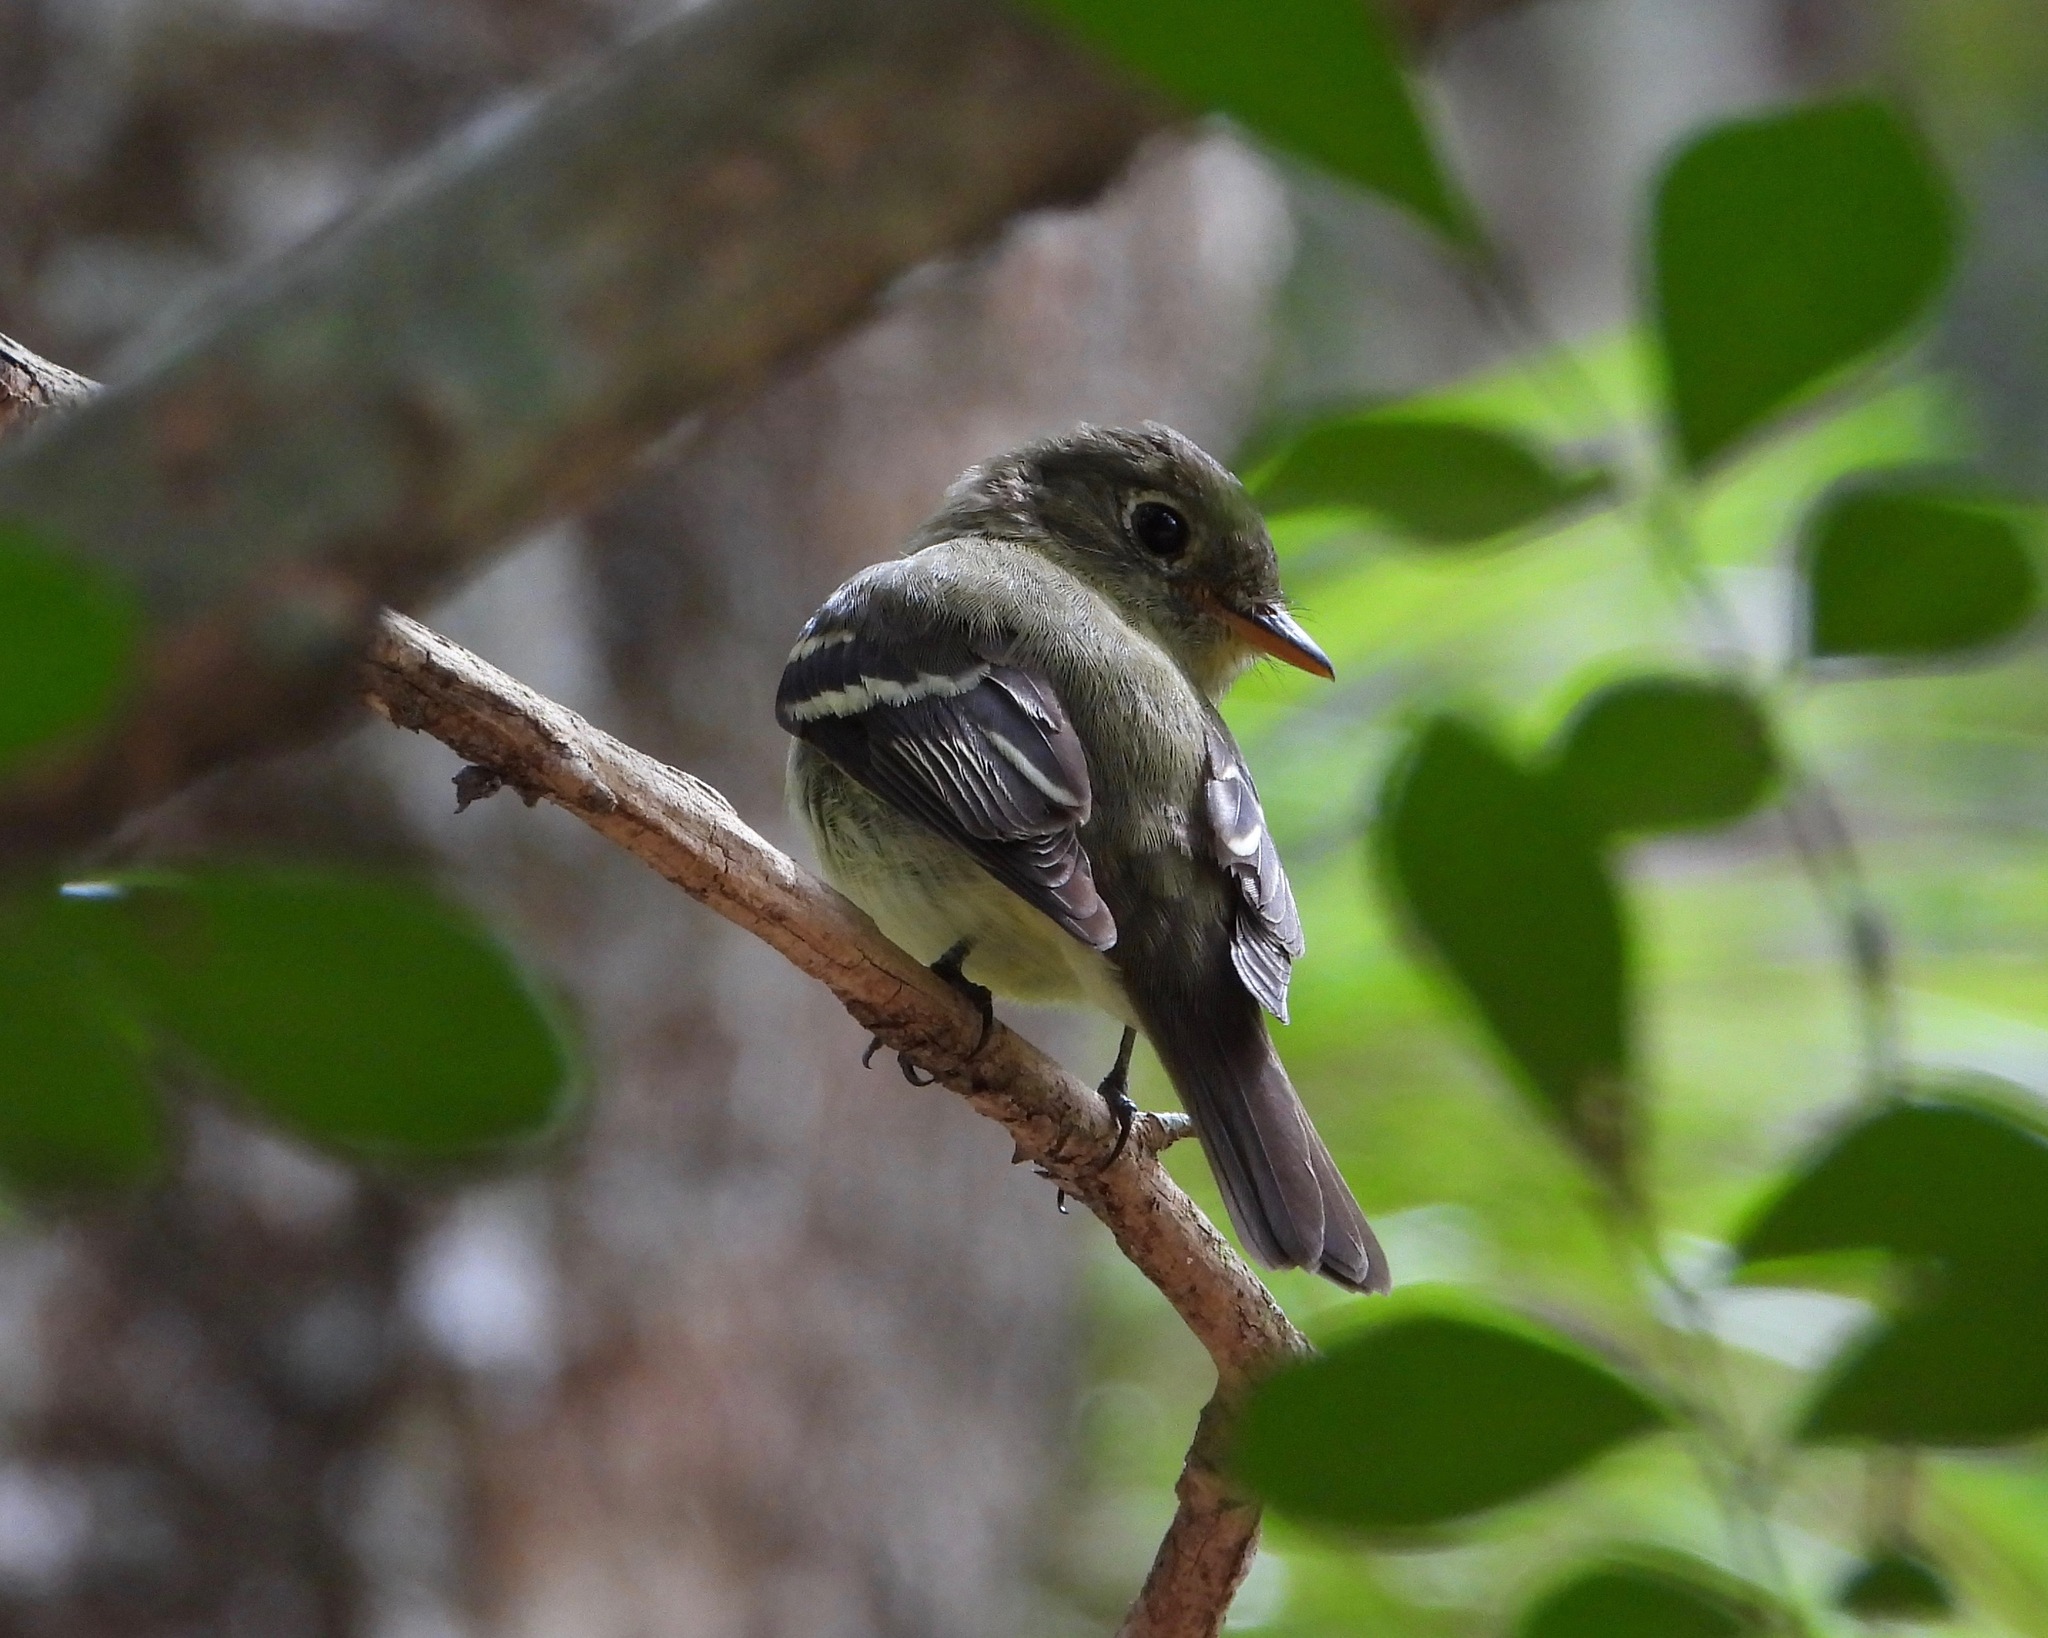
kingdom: Animalia
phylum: Chordata
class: Aves
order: Passeriformes
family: Tyrannidae
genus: Empidonax
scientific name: Empidonax flaviventris
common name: Yellow-bellied flycatcher
